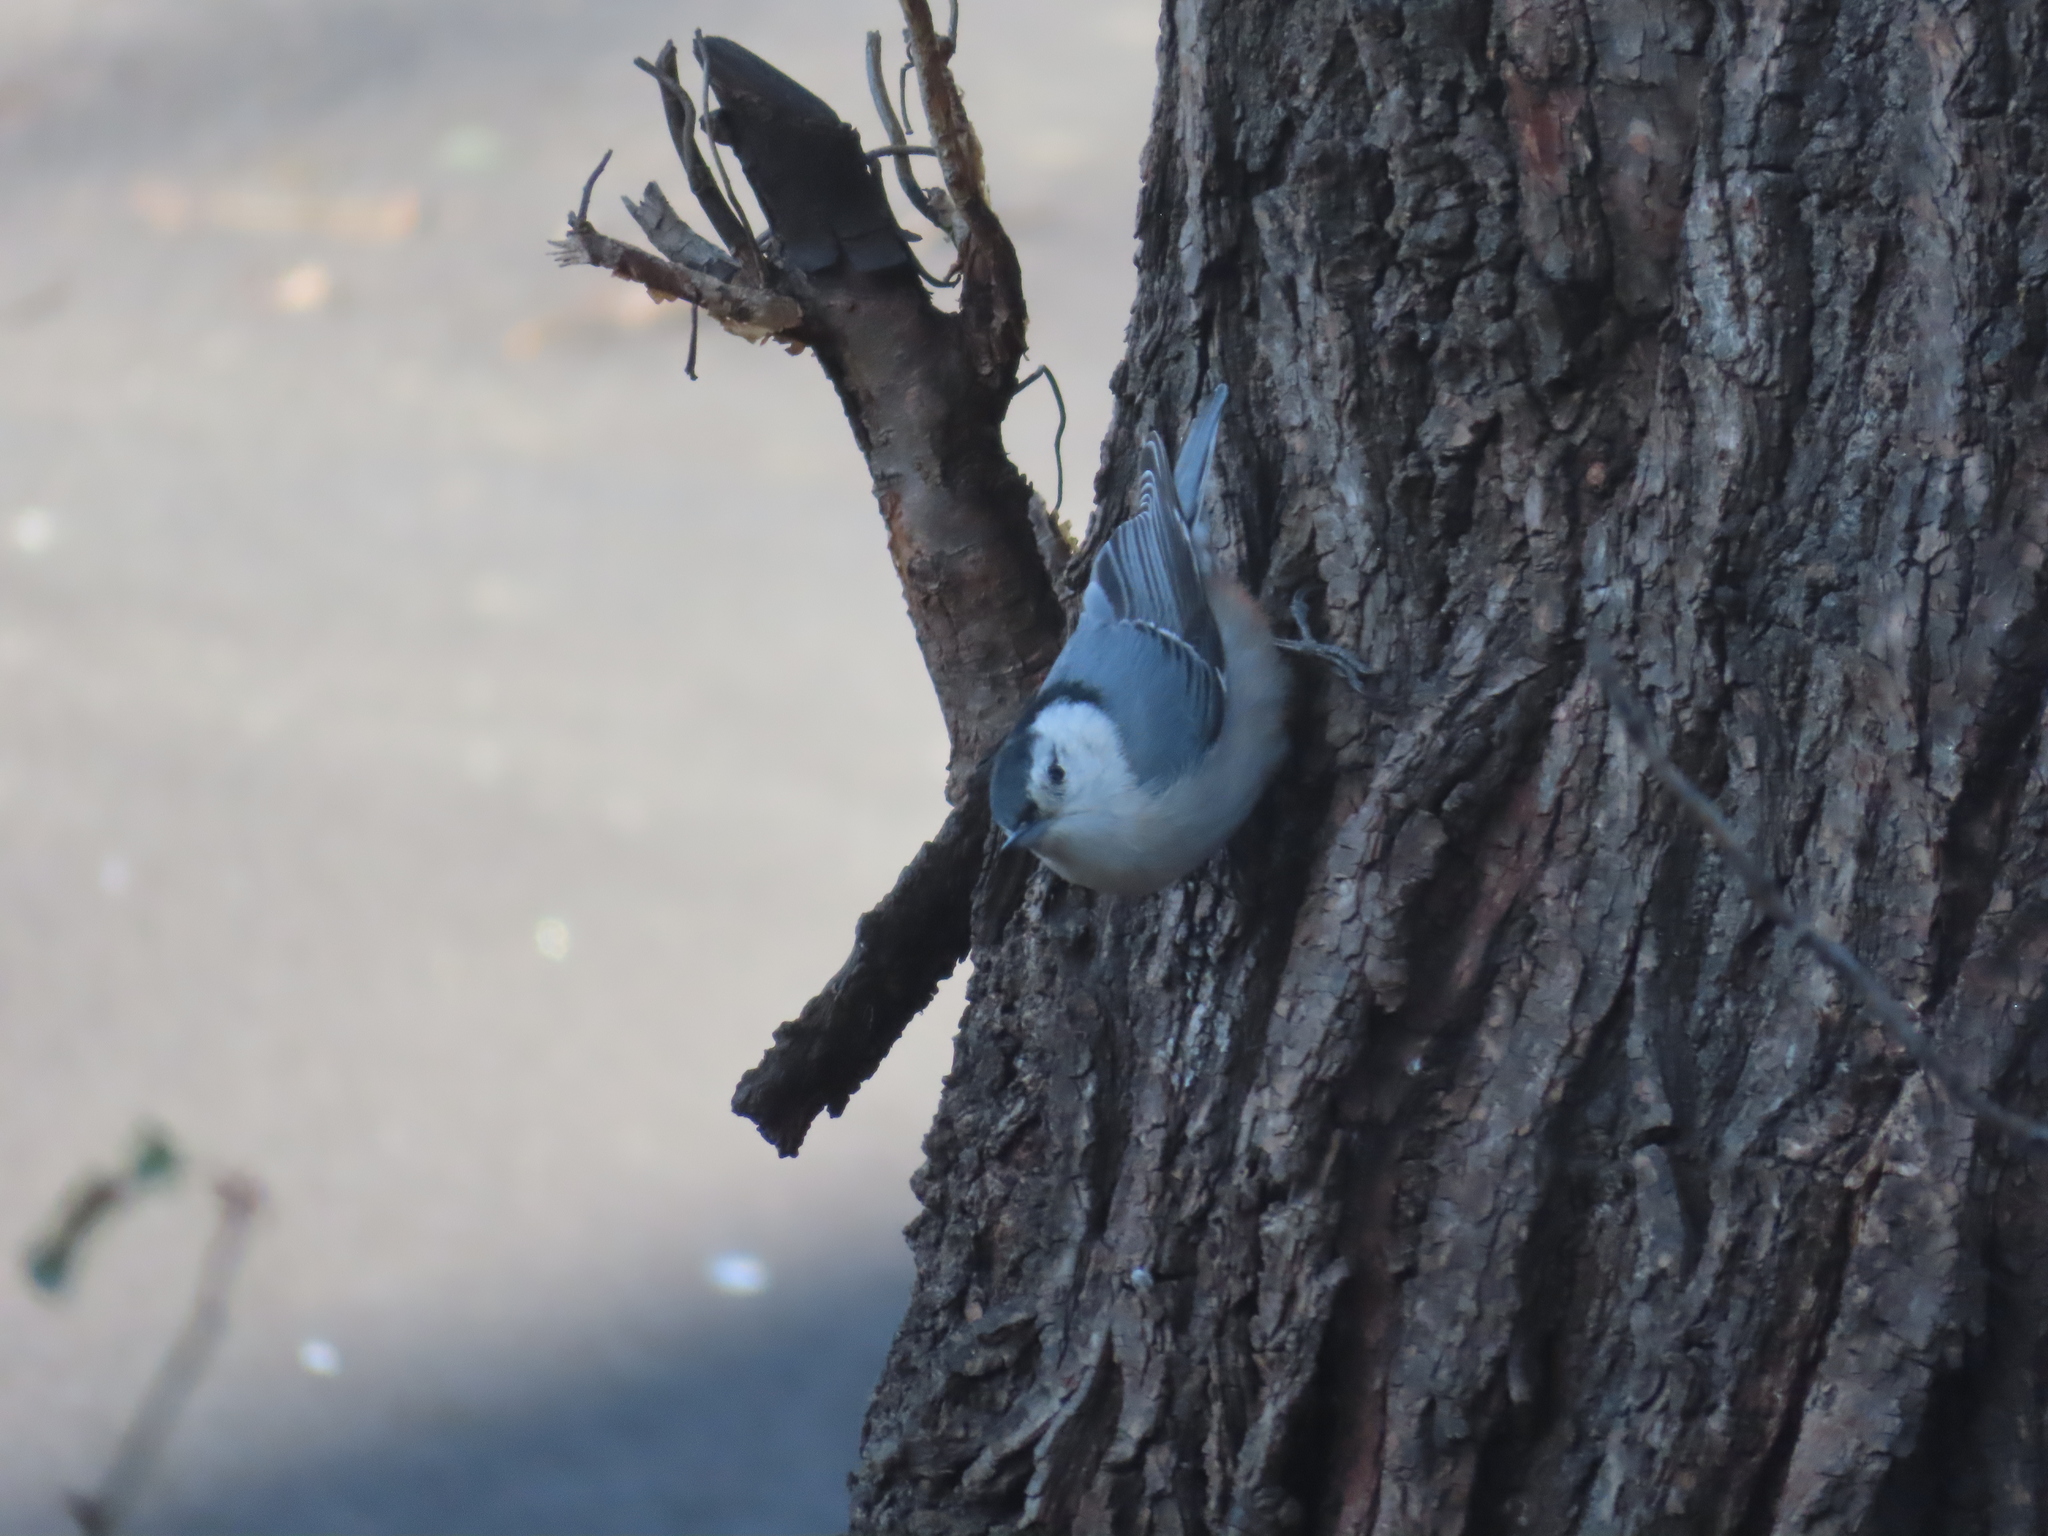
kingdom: Animalia
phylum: Chordata
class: Aves
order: Passeriformes
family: Sittidae
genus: Sitta
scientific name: Sitta carolinensis
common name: White-breasted nuthatch
